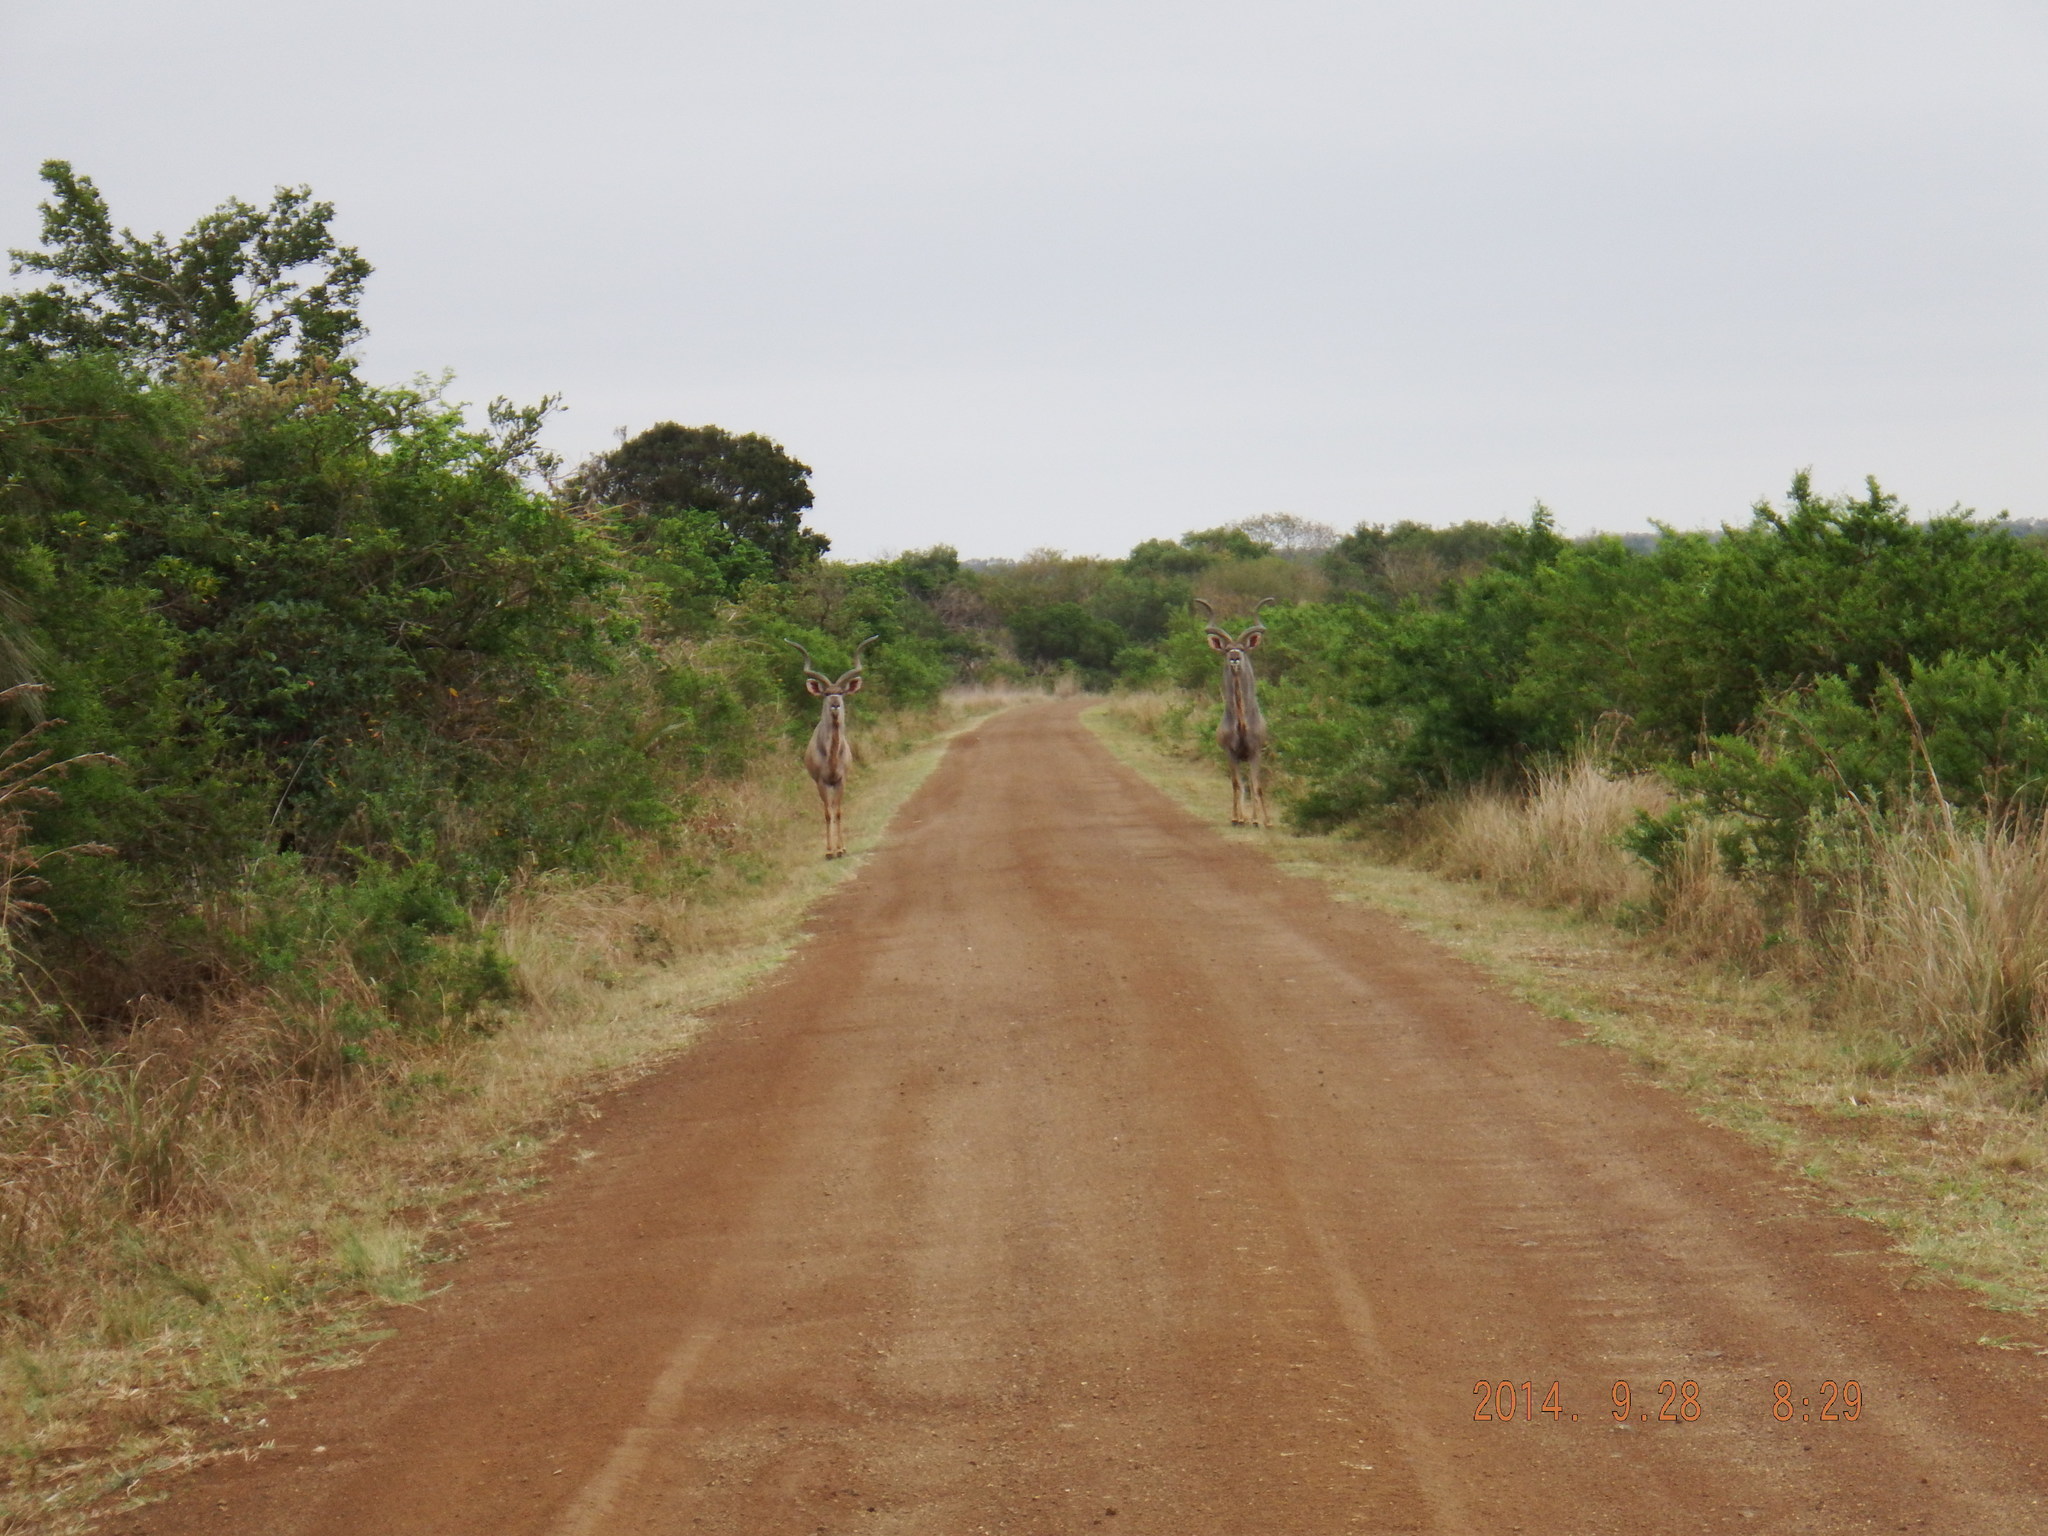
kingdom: Animalia
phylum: Chordata
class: Mammalia
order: Artiodactyla
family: Bovidae
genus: Tragelaphus
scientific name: Tragelaphus strepsiceros
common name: Greater kudu
